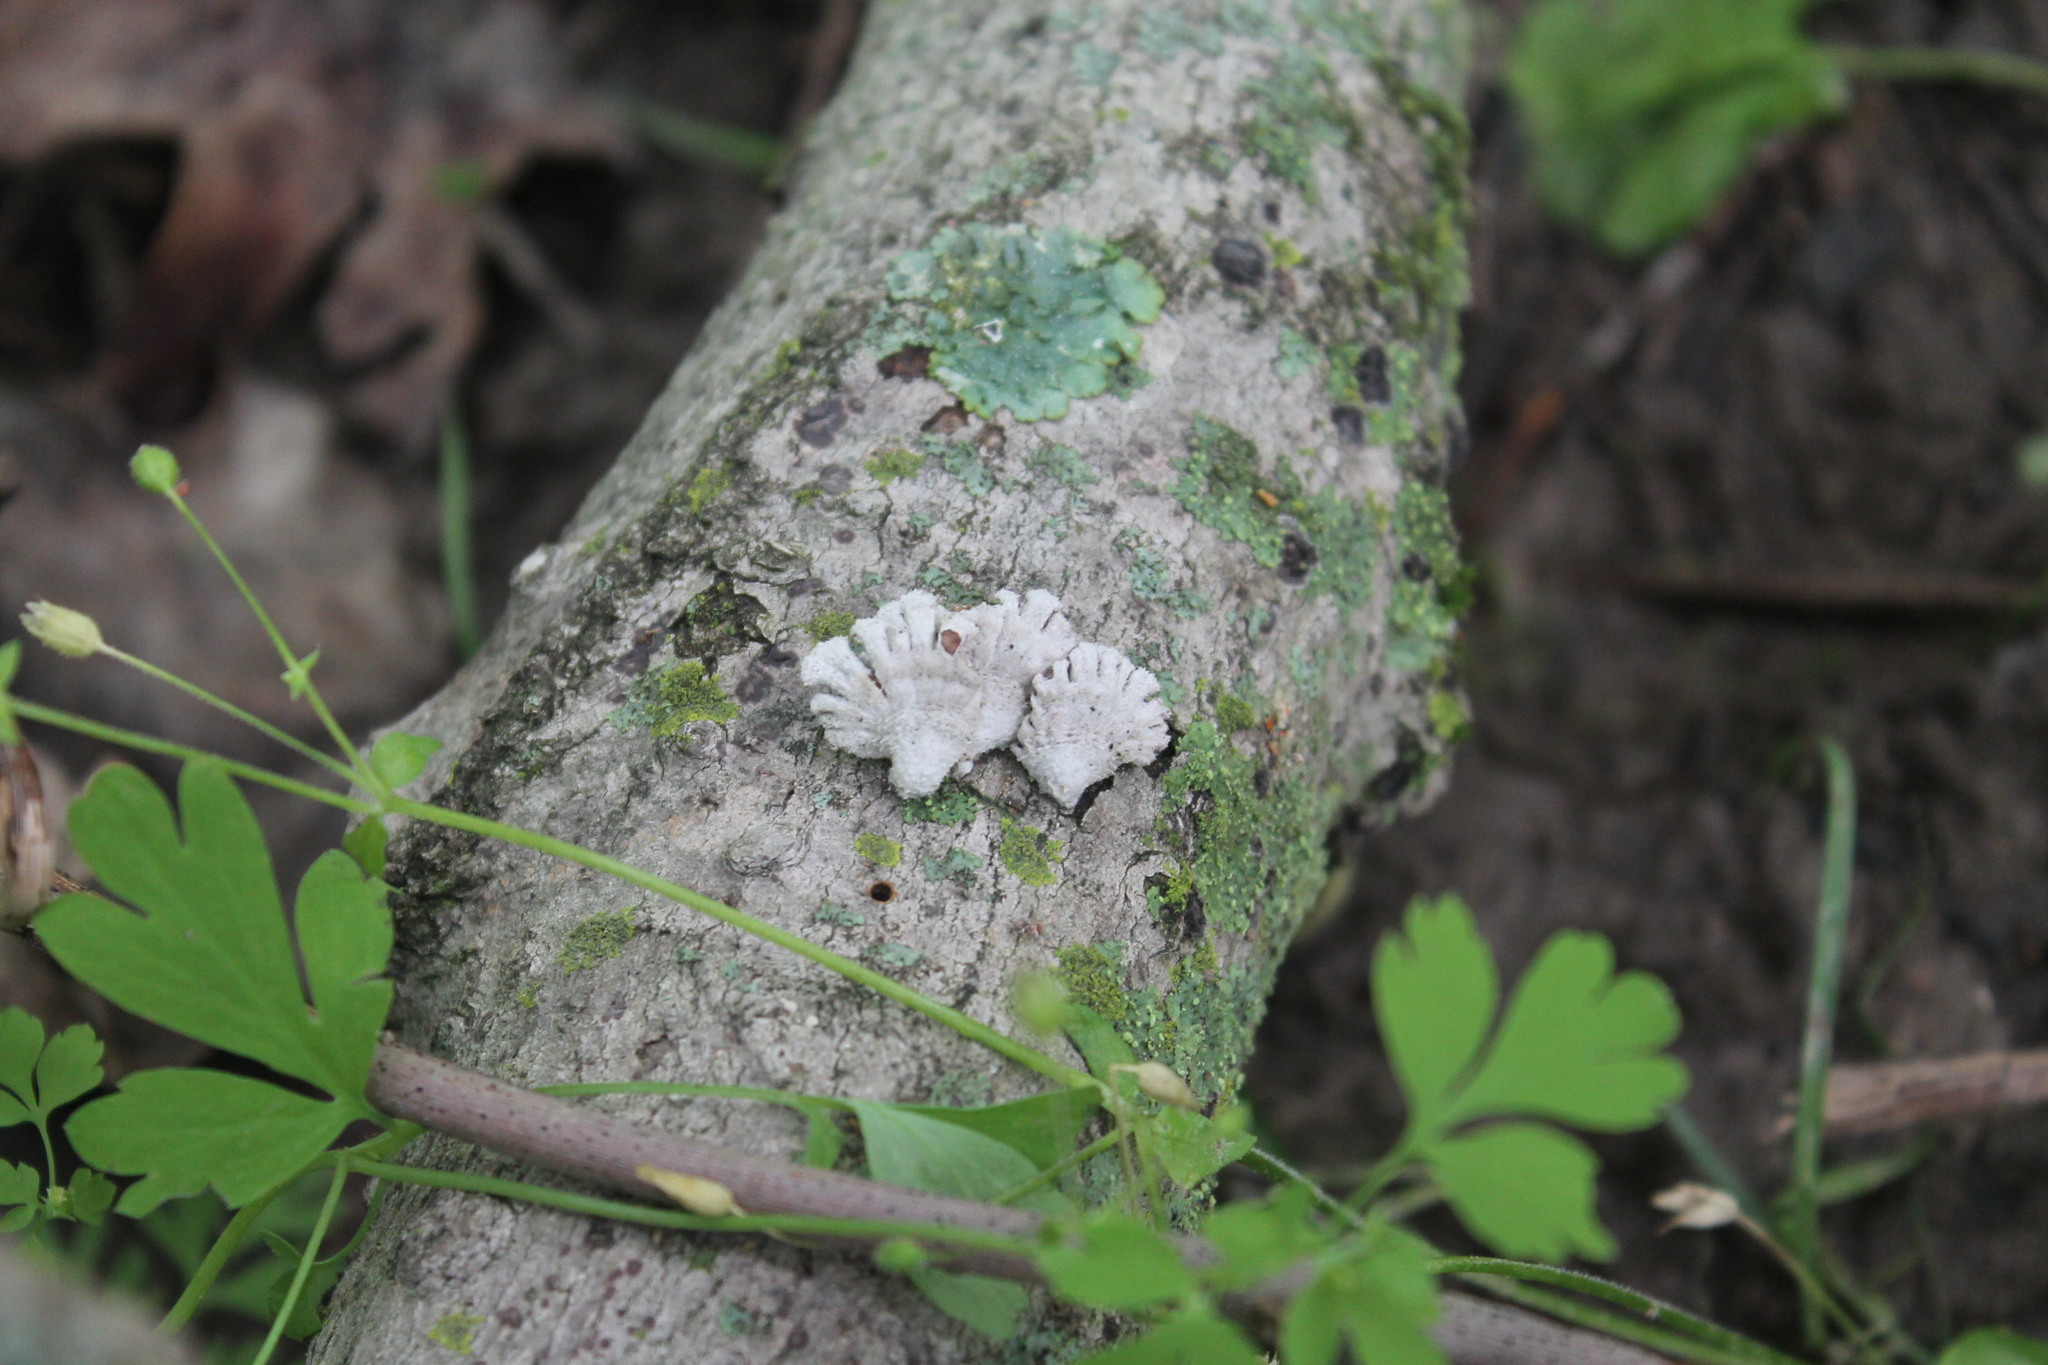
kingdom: Fungi
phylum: Basidiomycota
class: Agaricomycetes
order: Agaricales
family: Schizophyllaceae
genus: Schizophyllum
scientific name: Schizophyllum commune
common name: Common porecrust
